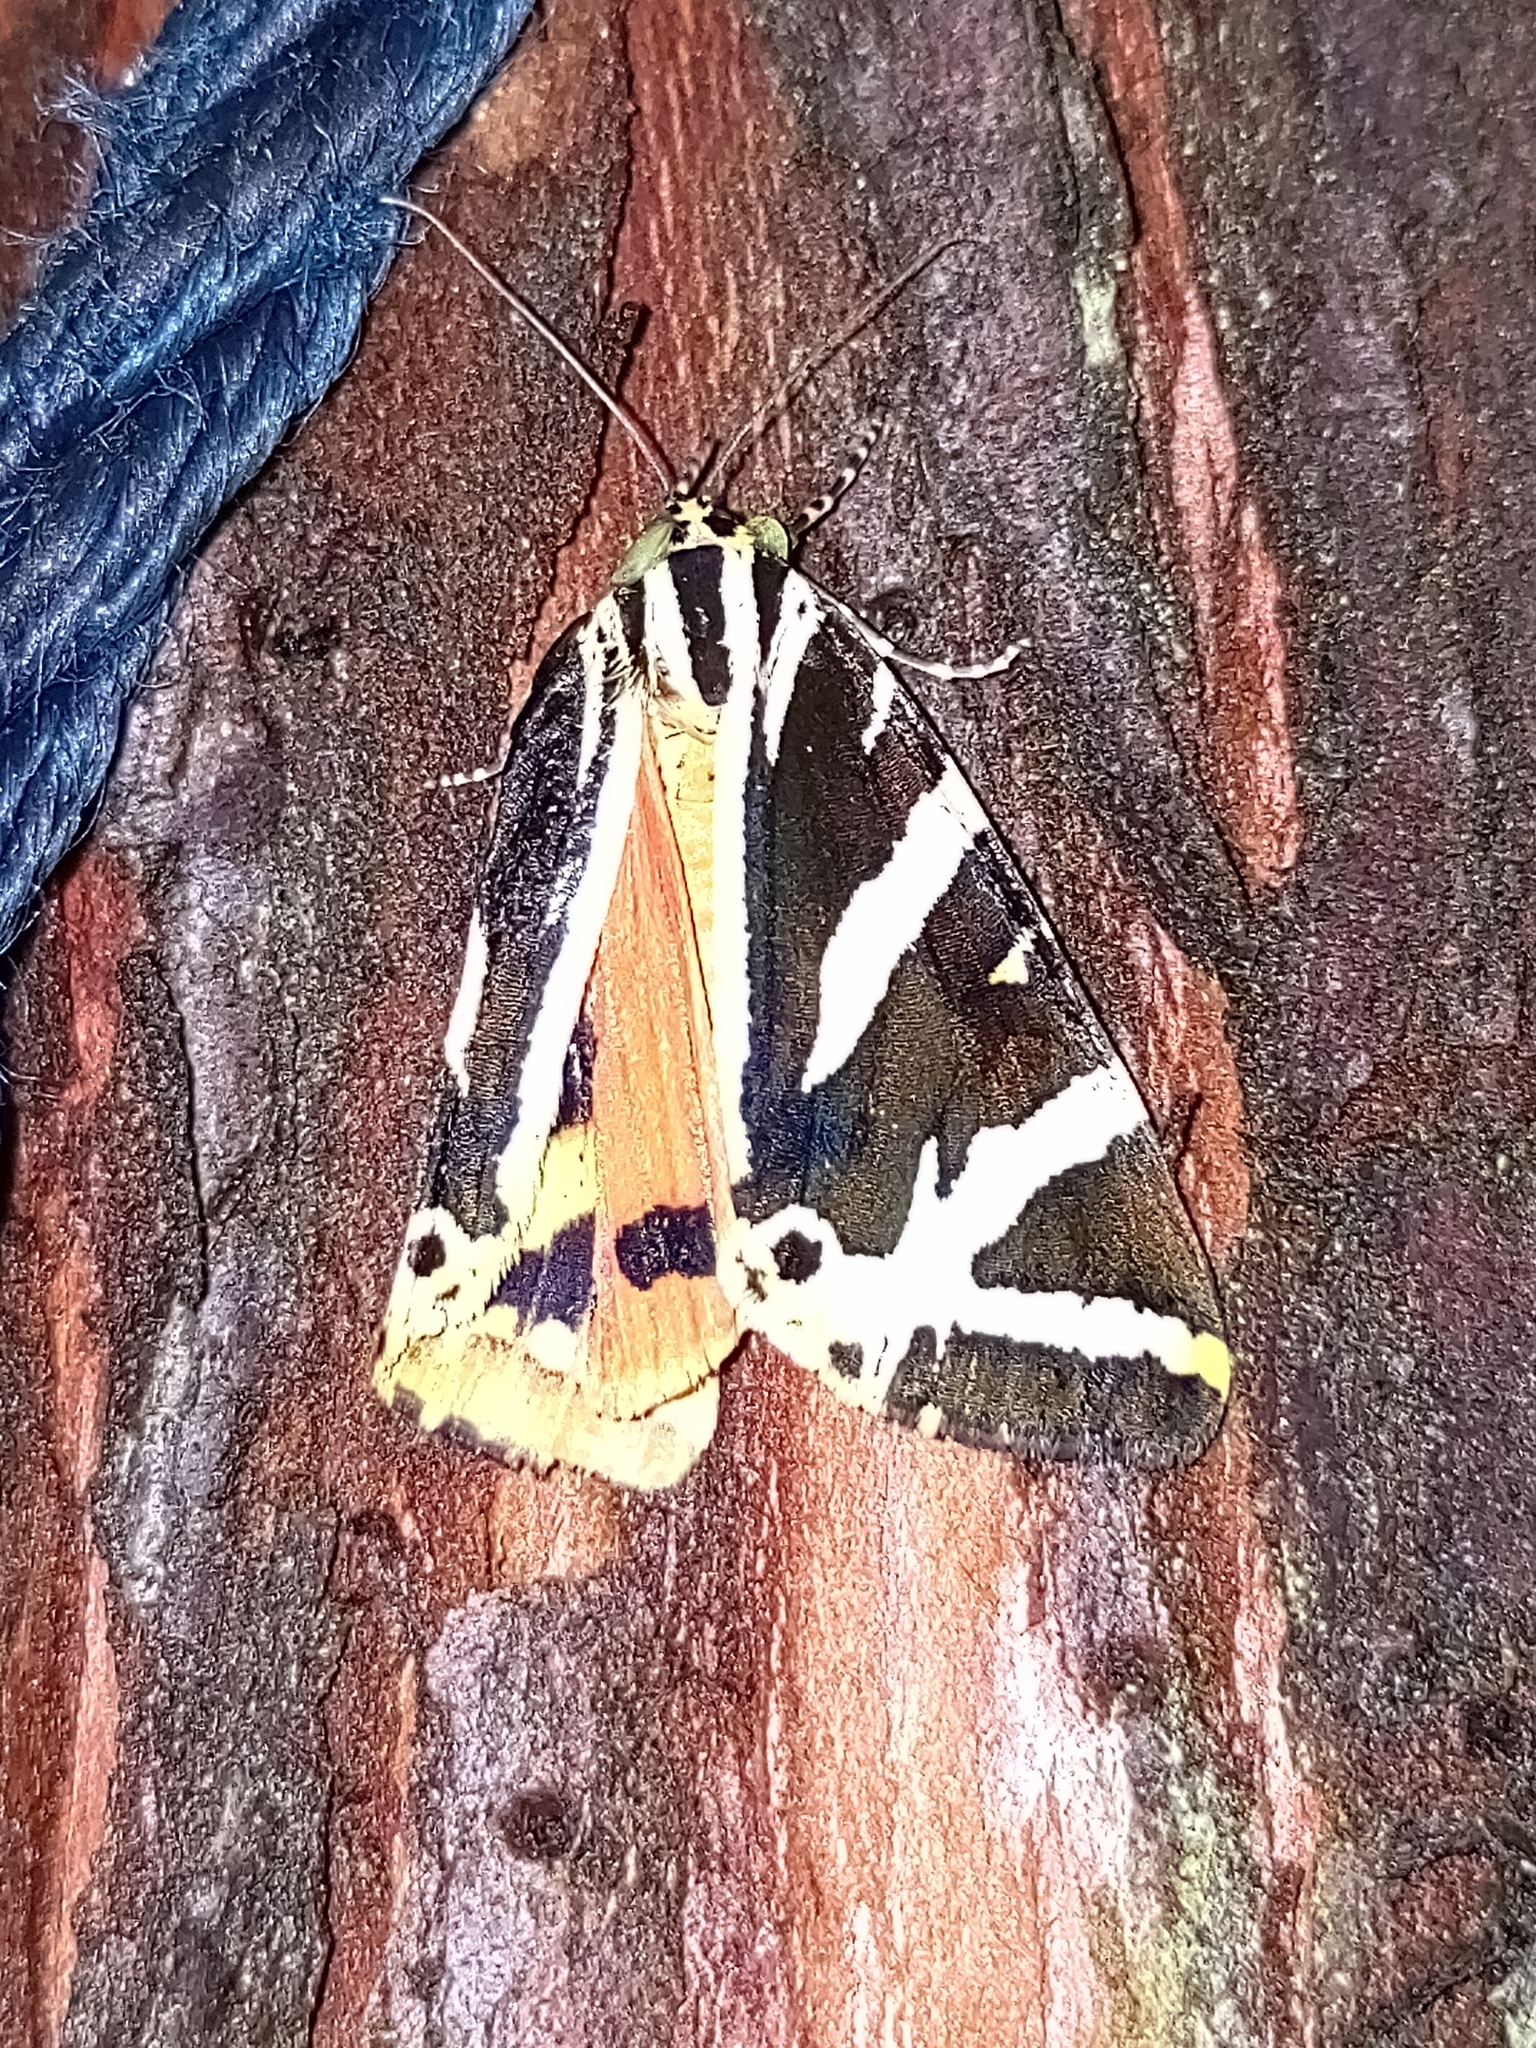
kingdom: Animalia
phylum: Arthropoda
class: Insecta
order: Lepidoptera
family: Erebidae
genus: Euplagia
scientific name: Euplagia quadripunctaria
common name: Jersey tiger
